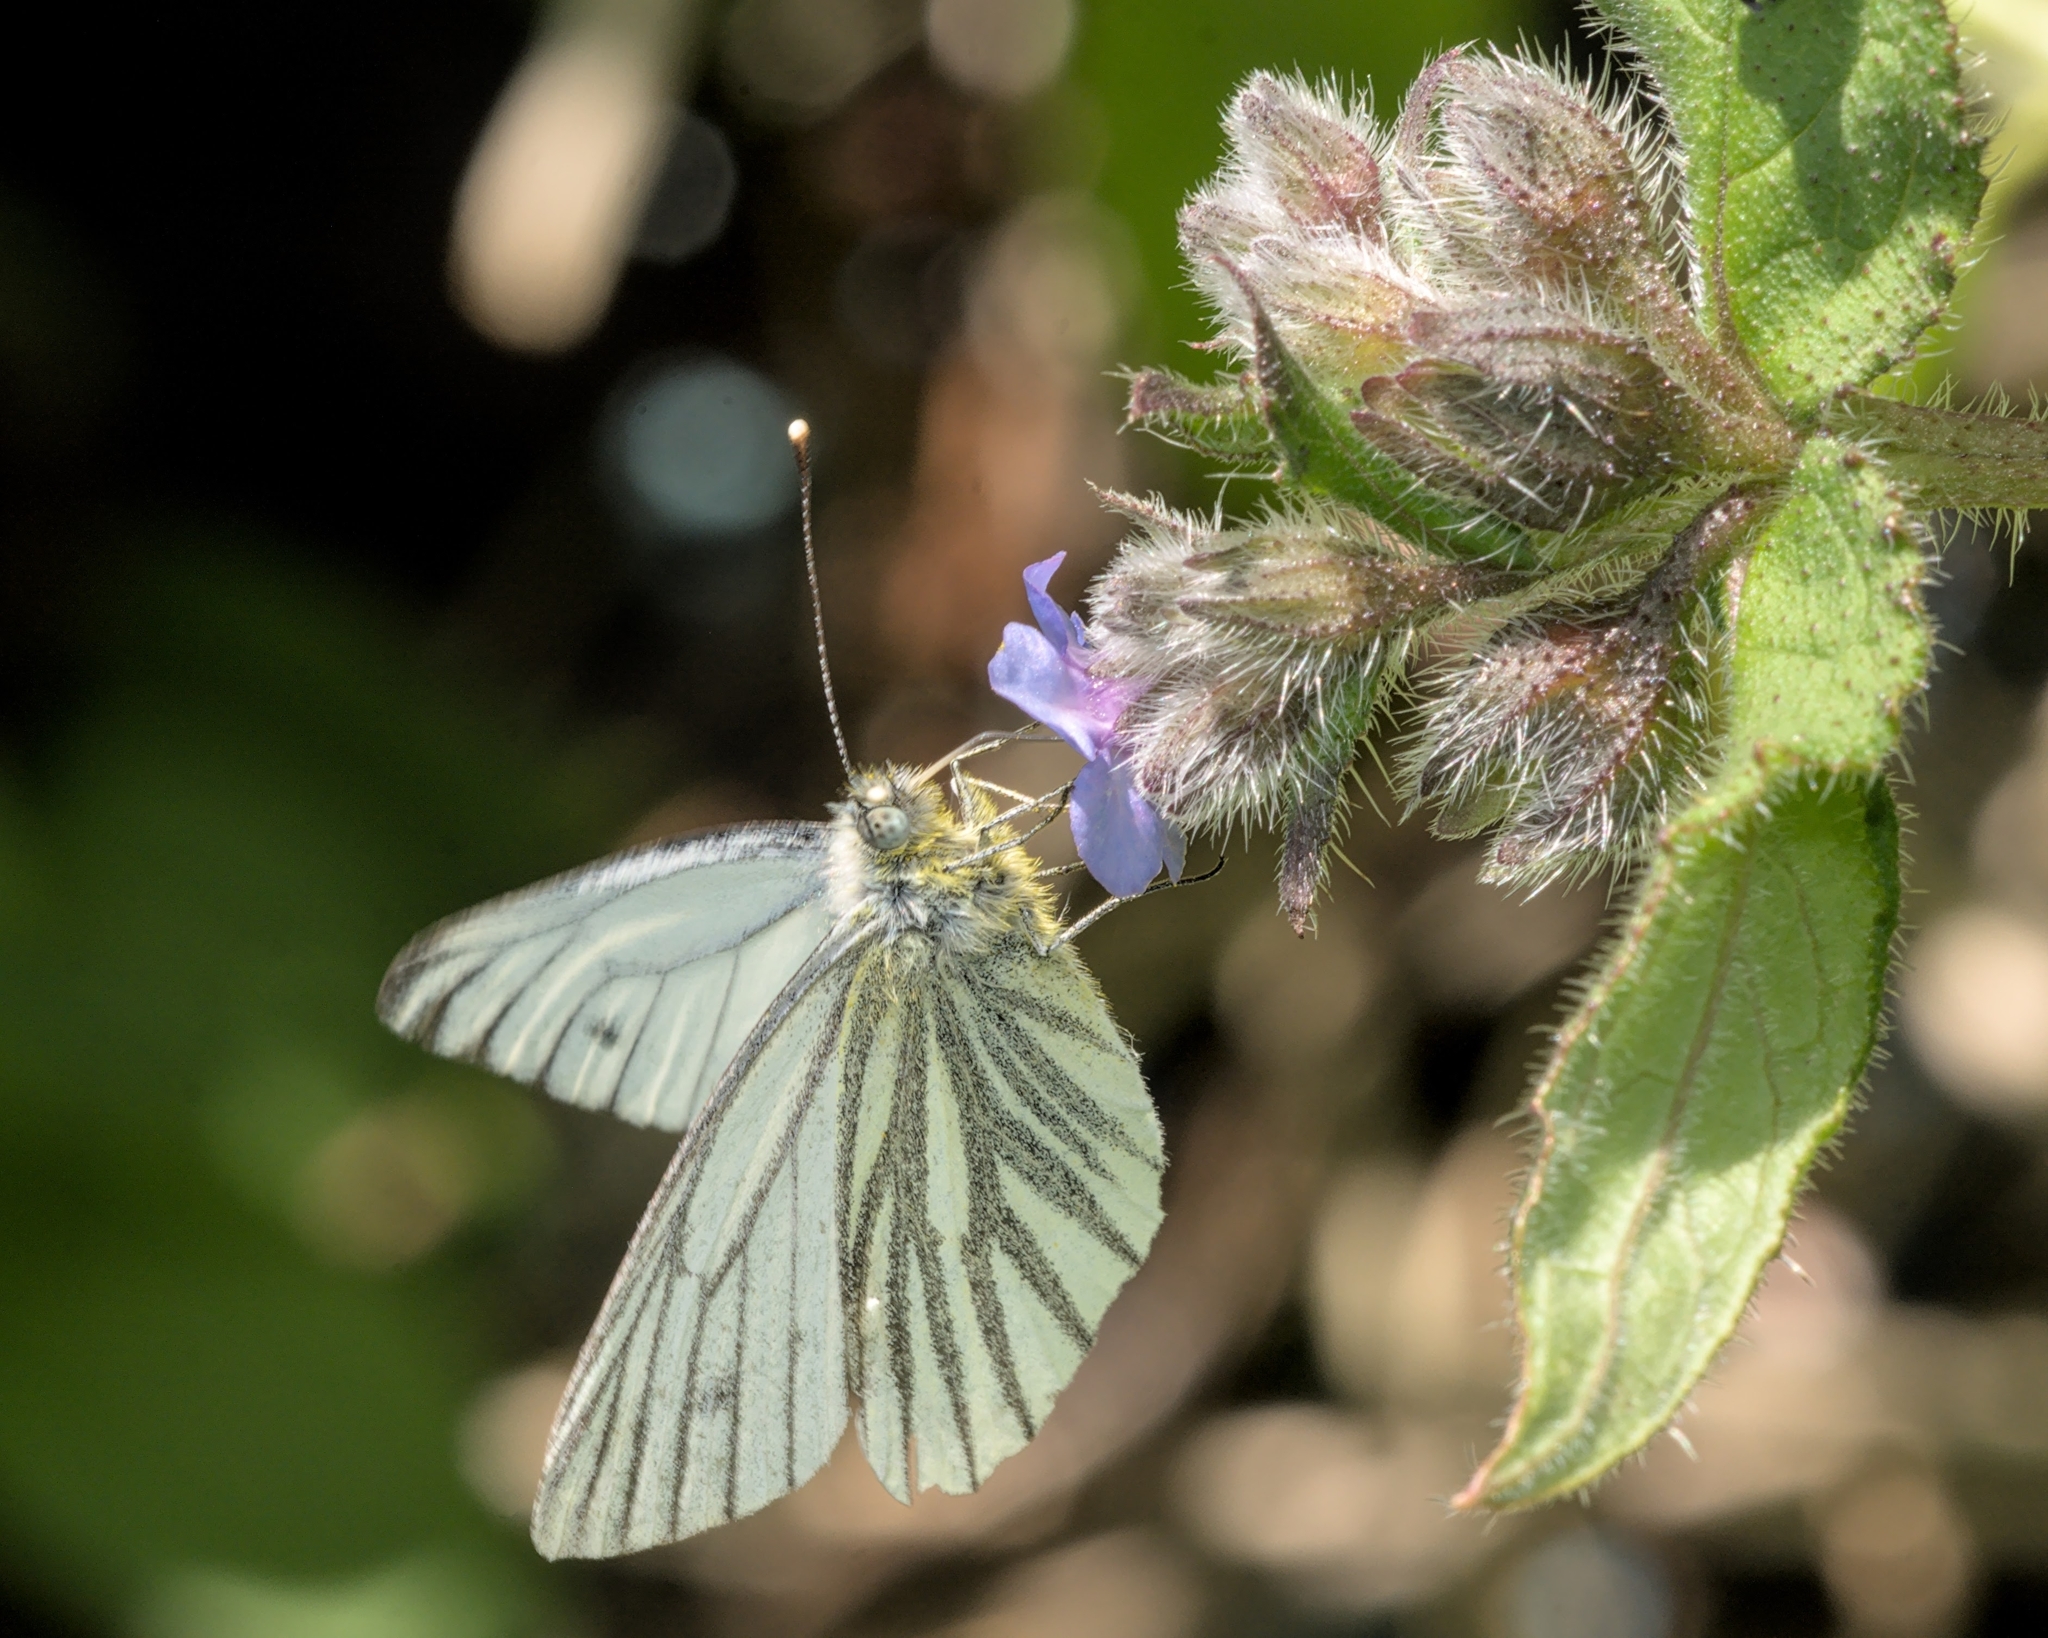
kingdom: Animalia
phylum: Arthropoda
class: Insecta
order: Lepidoptera
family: Pieridae
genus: Pieris
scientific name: Pieris napi
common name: Green-veined white
